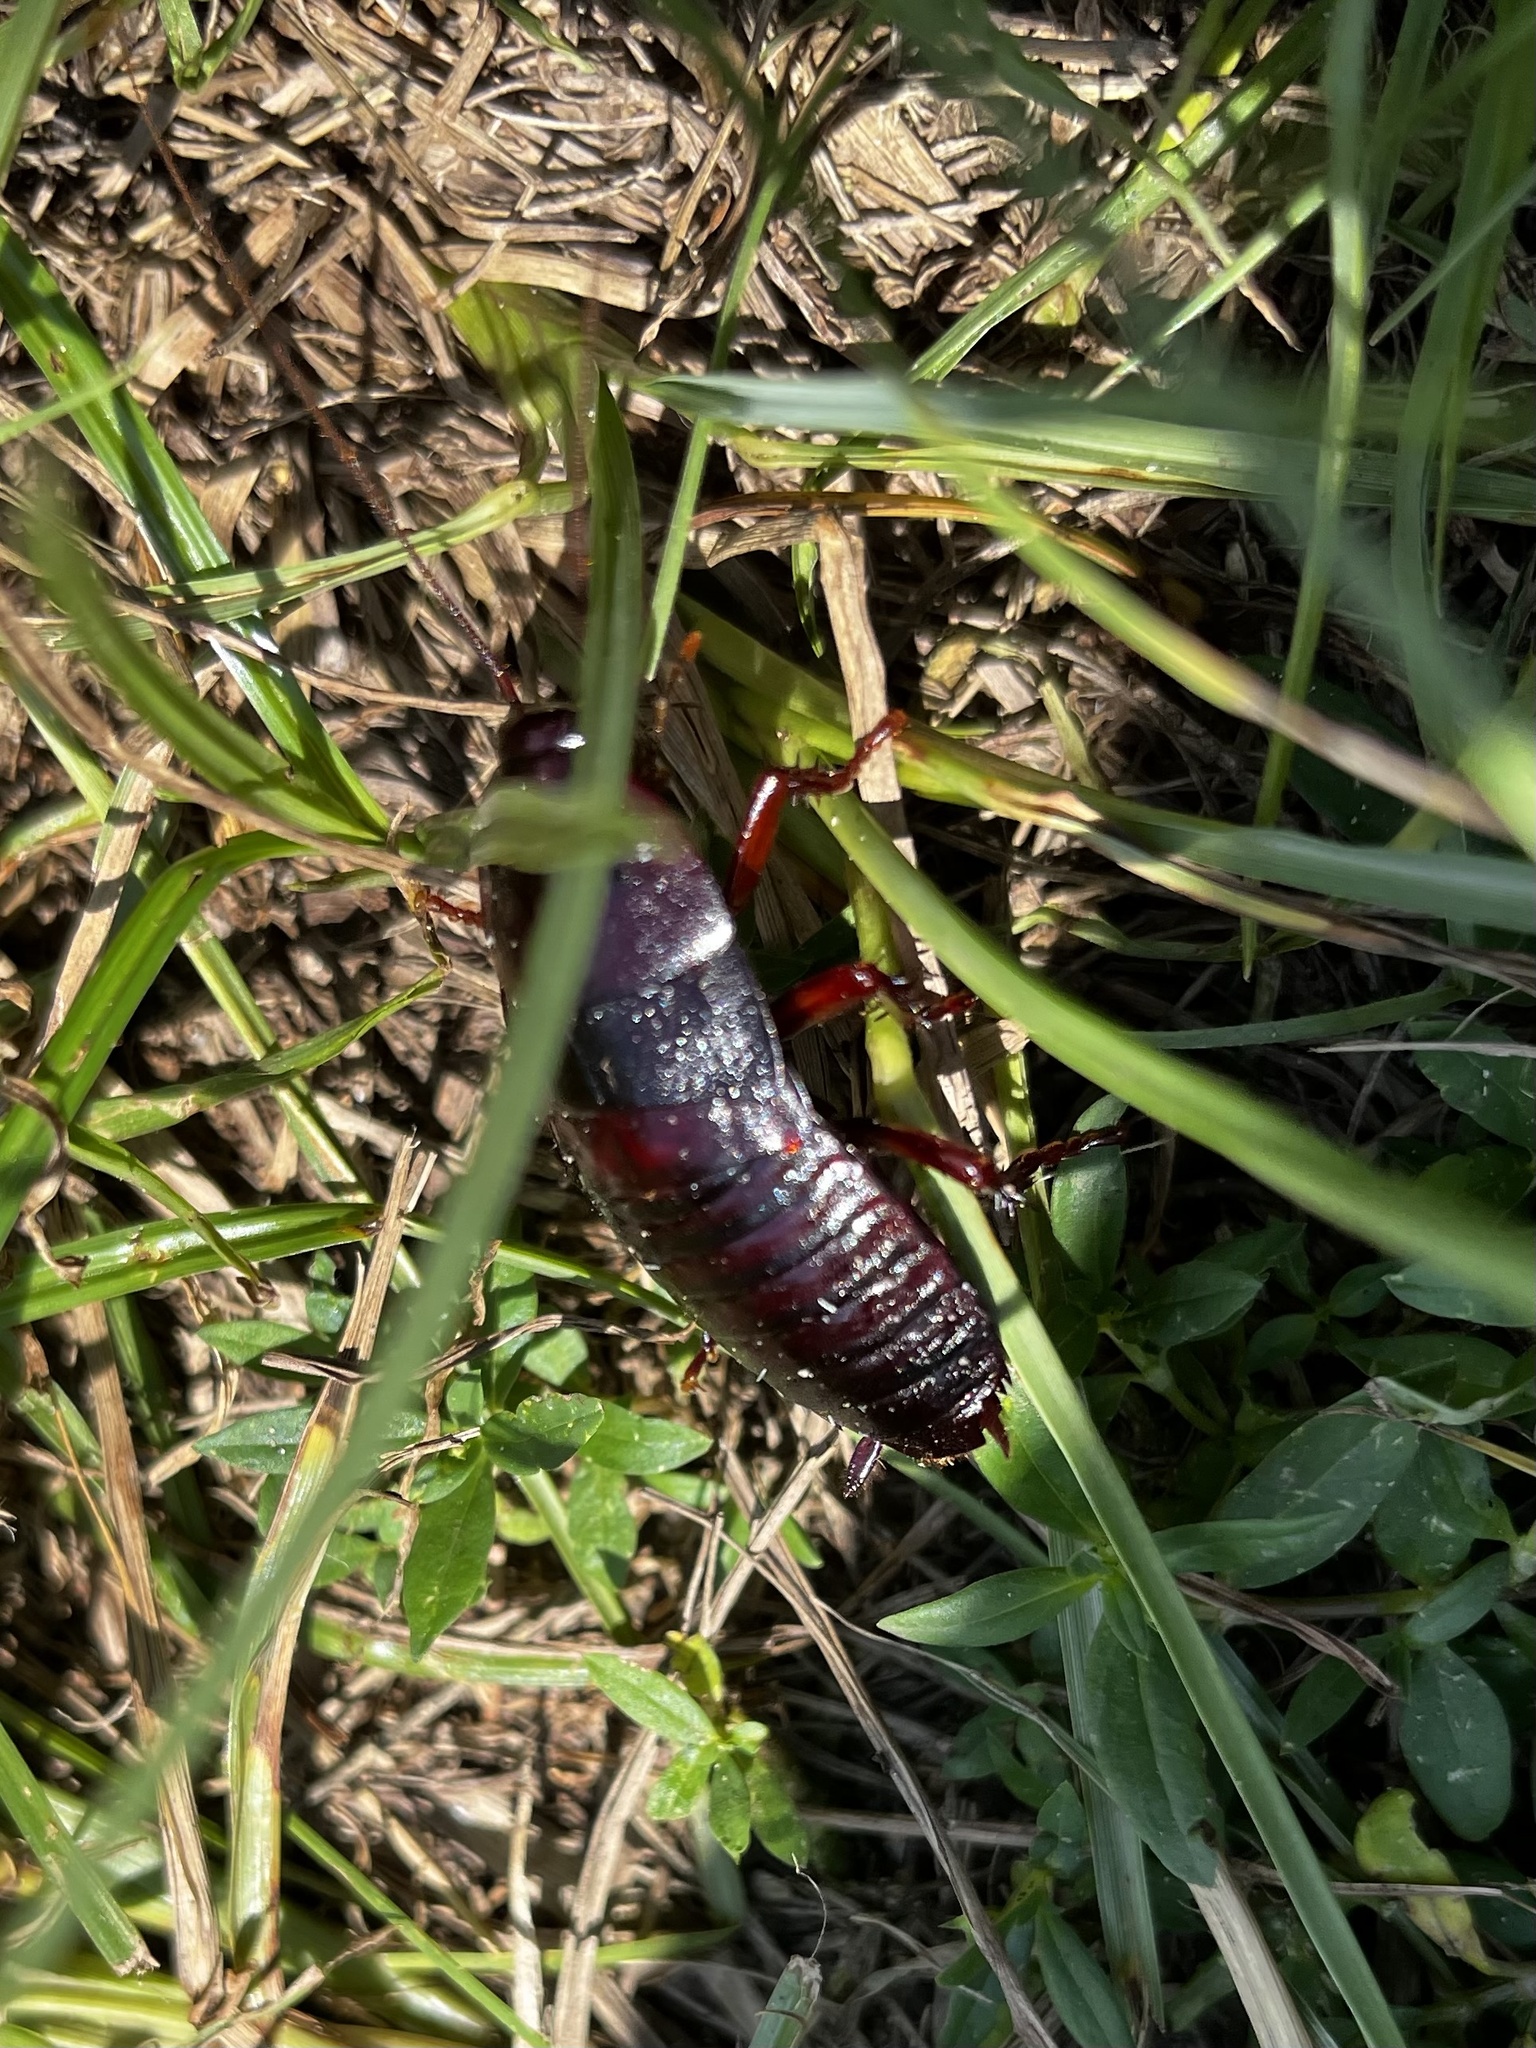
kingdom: Animalia
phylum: Arthropoda
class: Insecta
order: Blattodea
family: Blattidae
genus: Eurycotis
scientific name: Eurycotis floridana
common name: Florida cockroach
